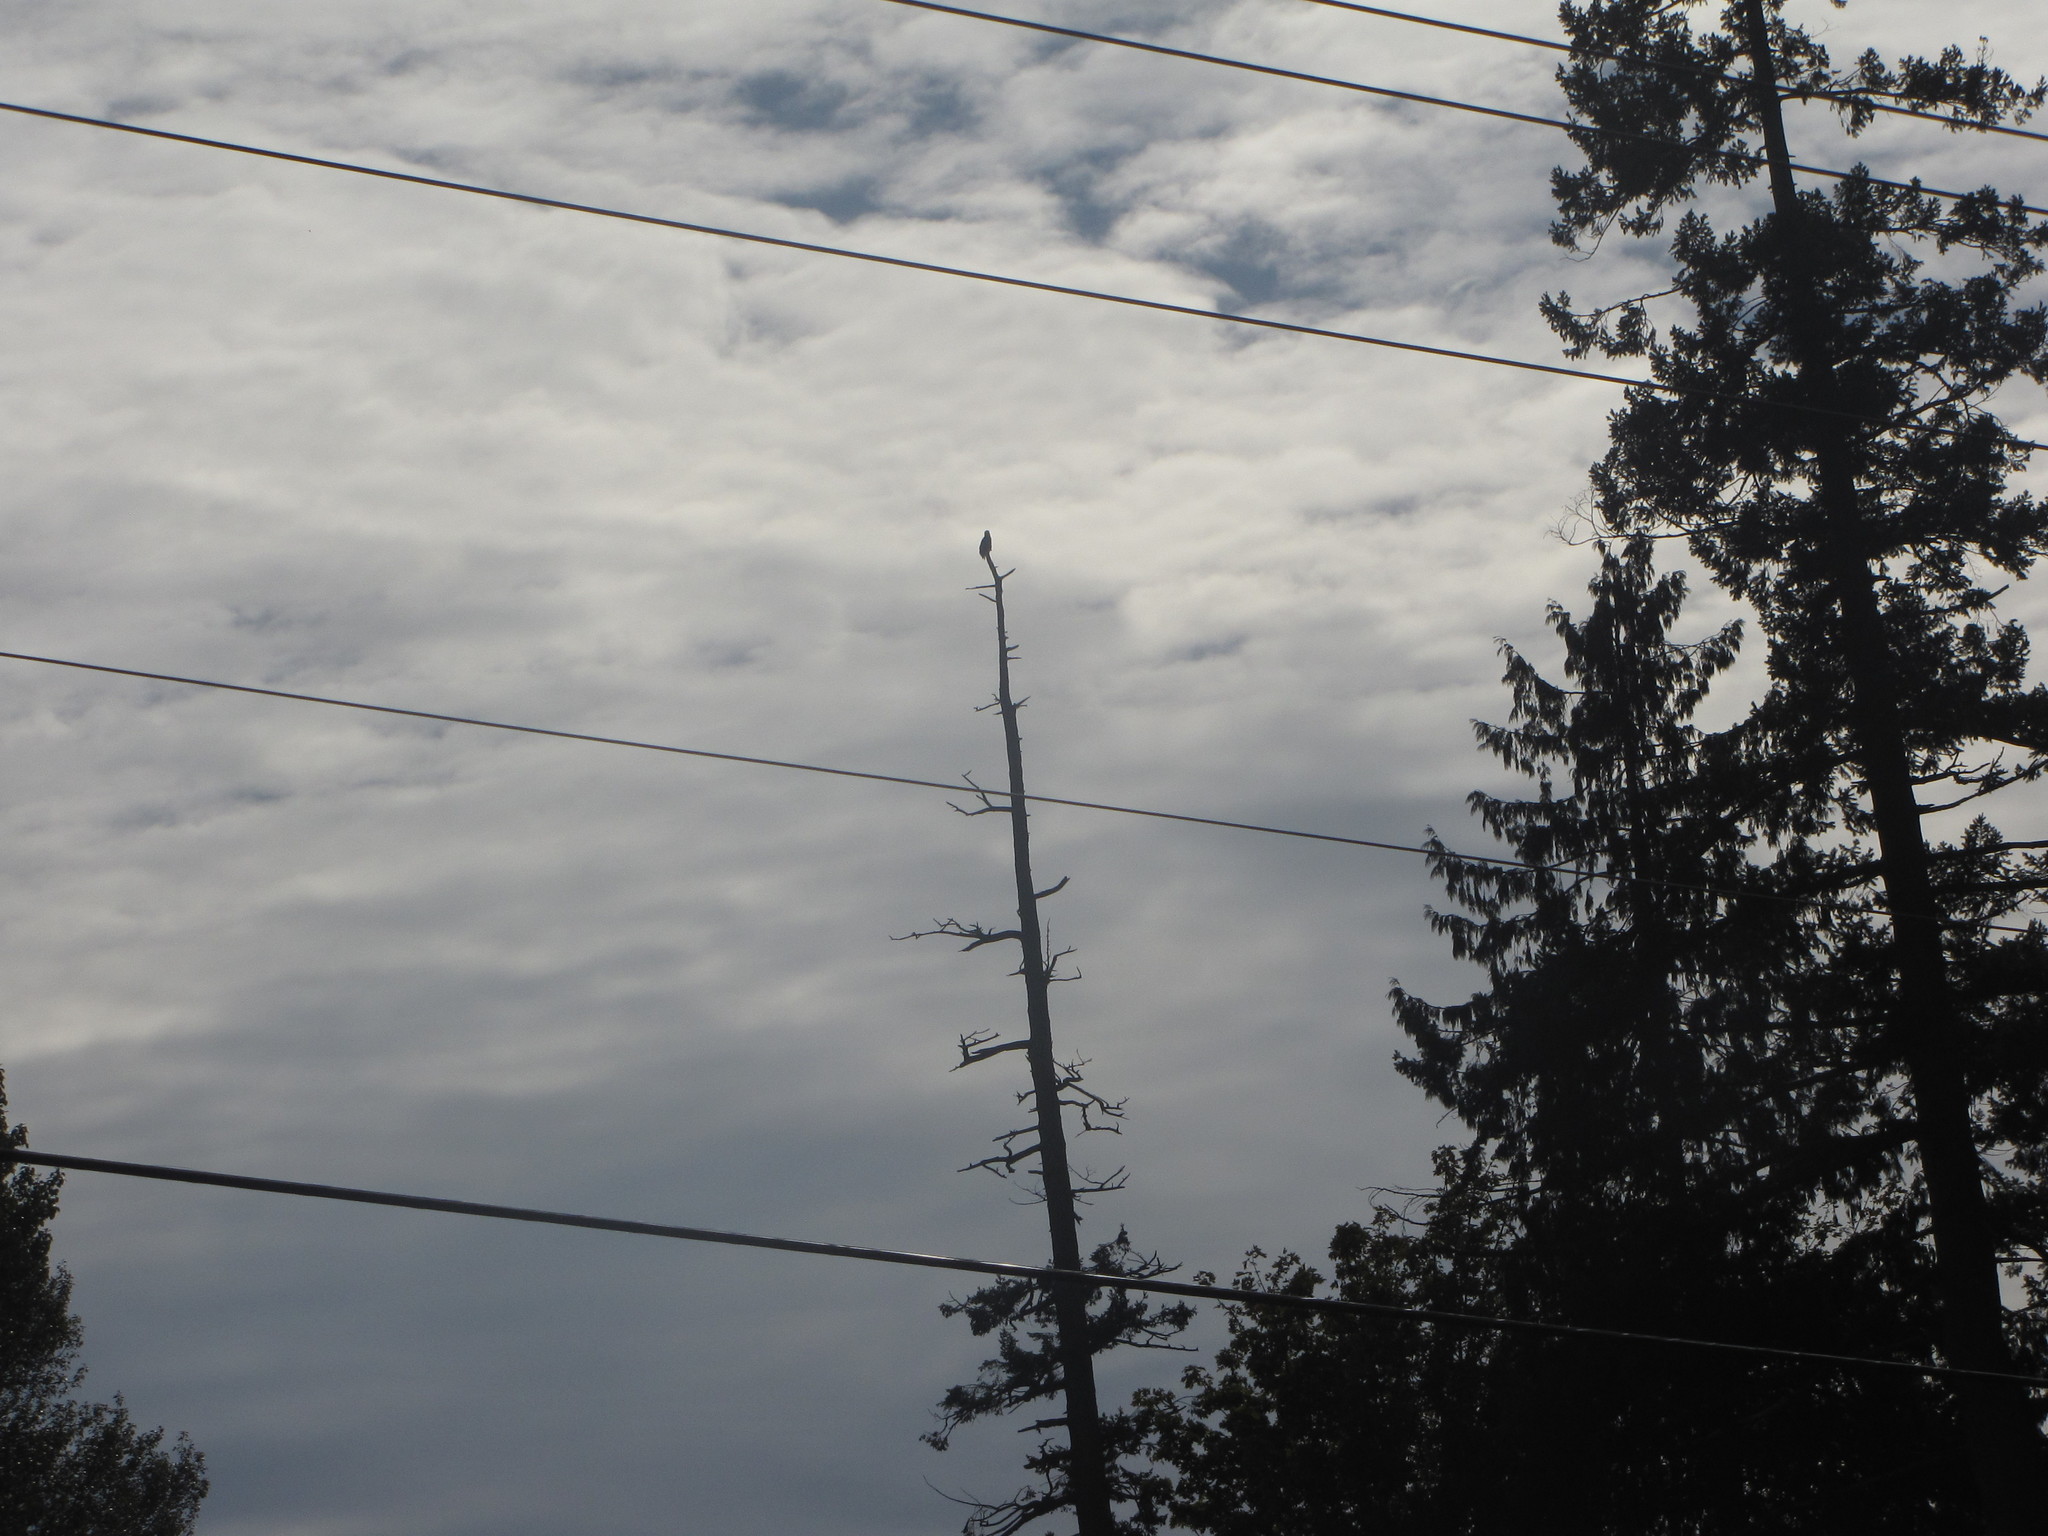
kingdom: Animalia
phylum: Chordata
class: Aves
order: Accipitriformes
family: Accipitridae
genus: Haliaeetus
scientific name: Haliaeetus leucocephalus
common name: Bald eagle
